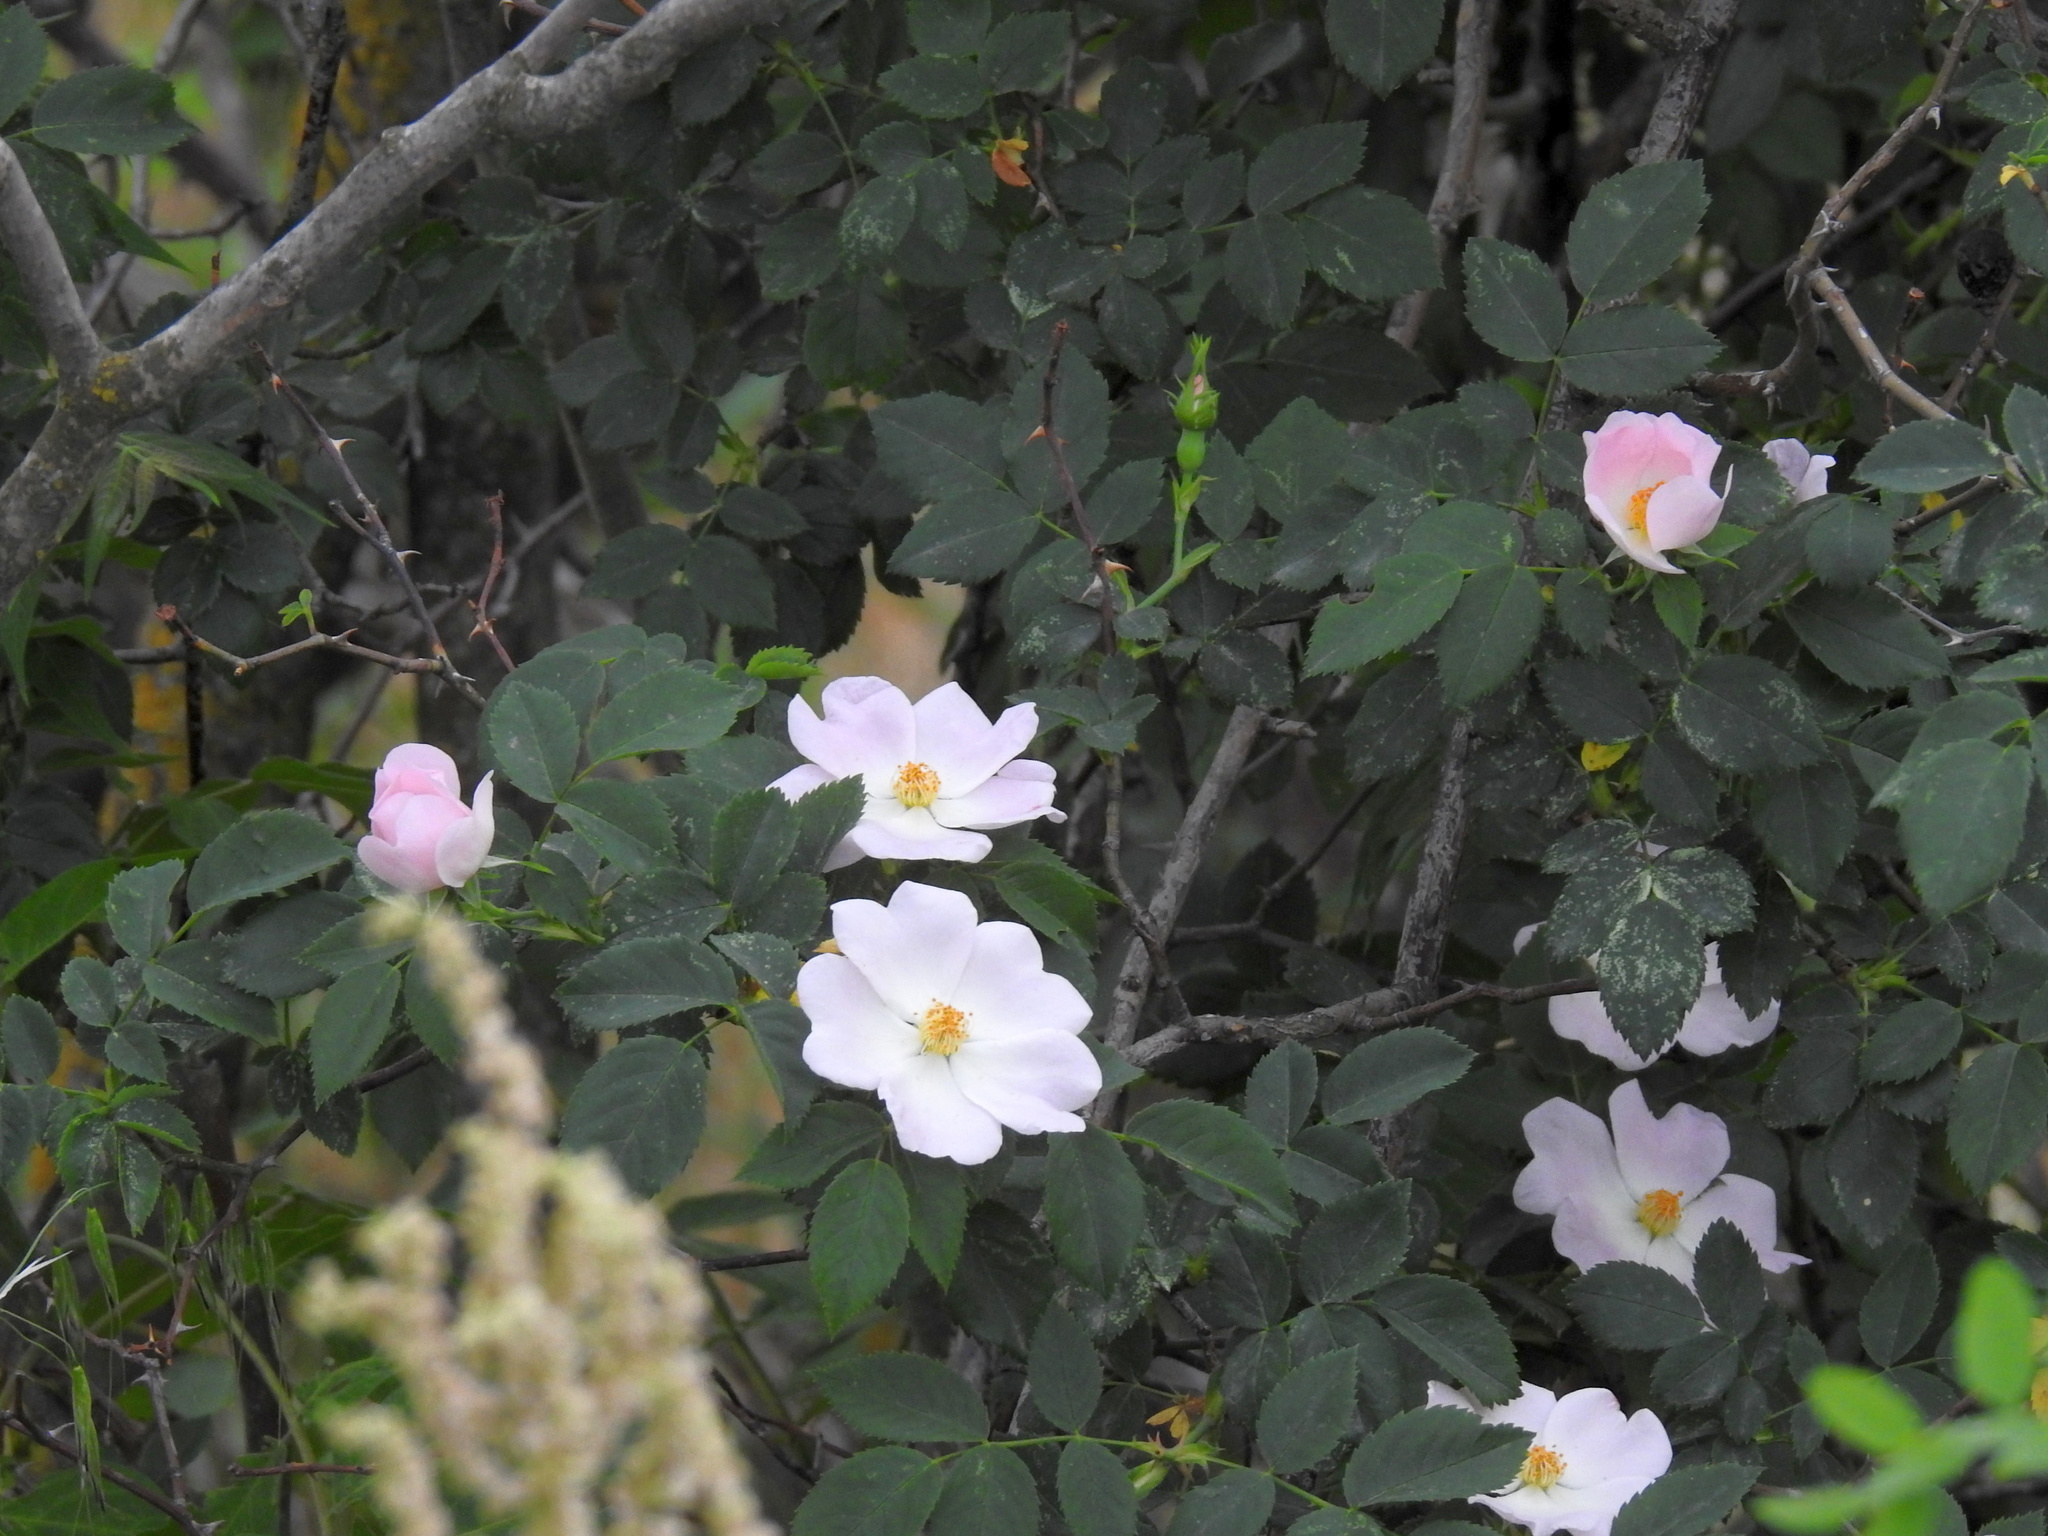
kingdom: Plantae
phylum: Tracheophyta
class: Magnoliopsida
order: Rosales
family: Rosaceae
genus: Rosa
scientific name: Rosa
